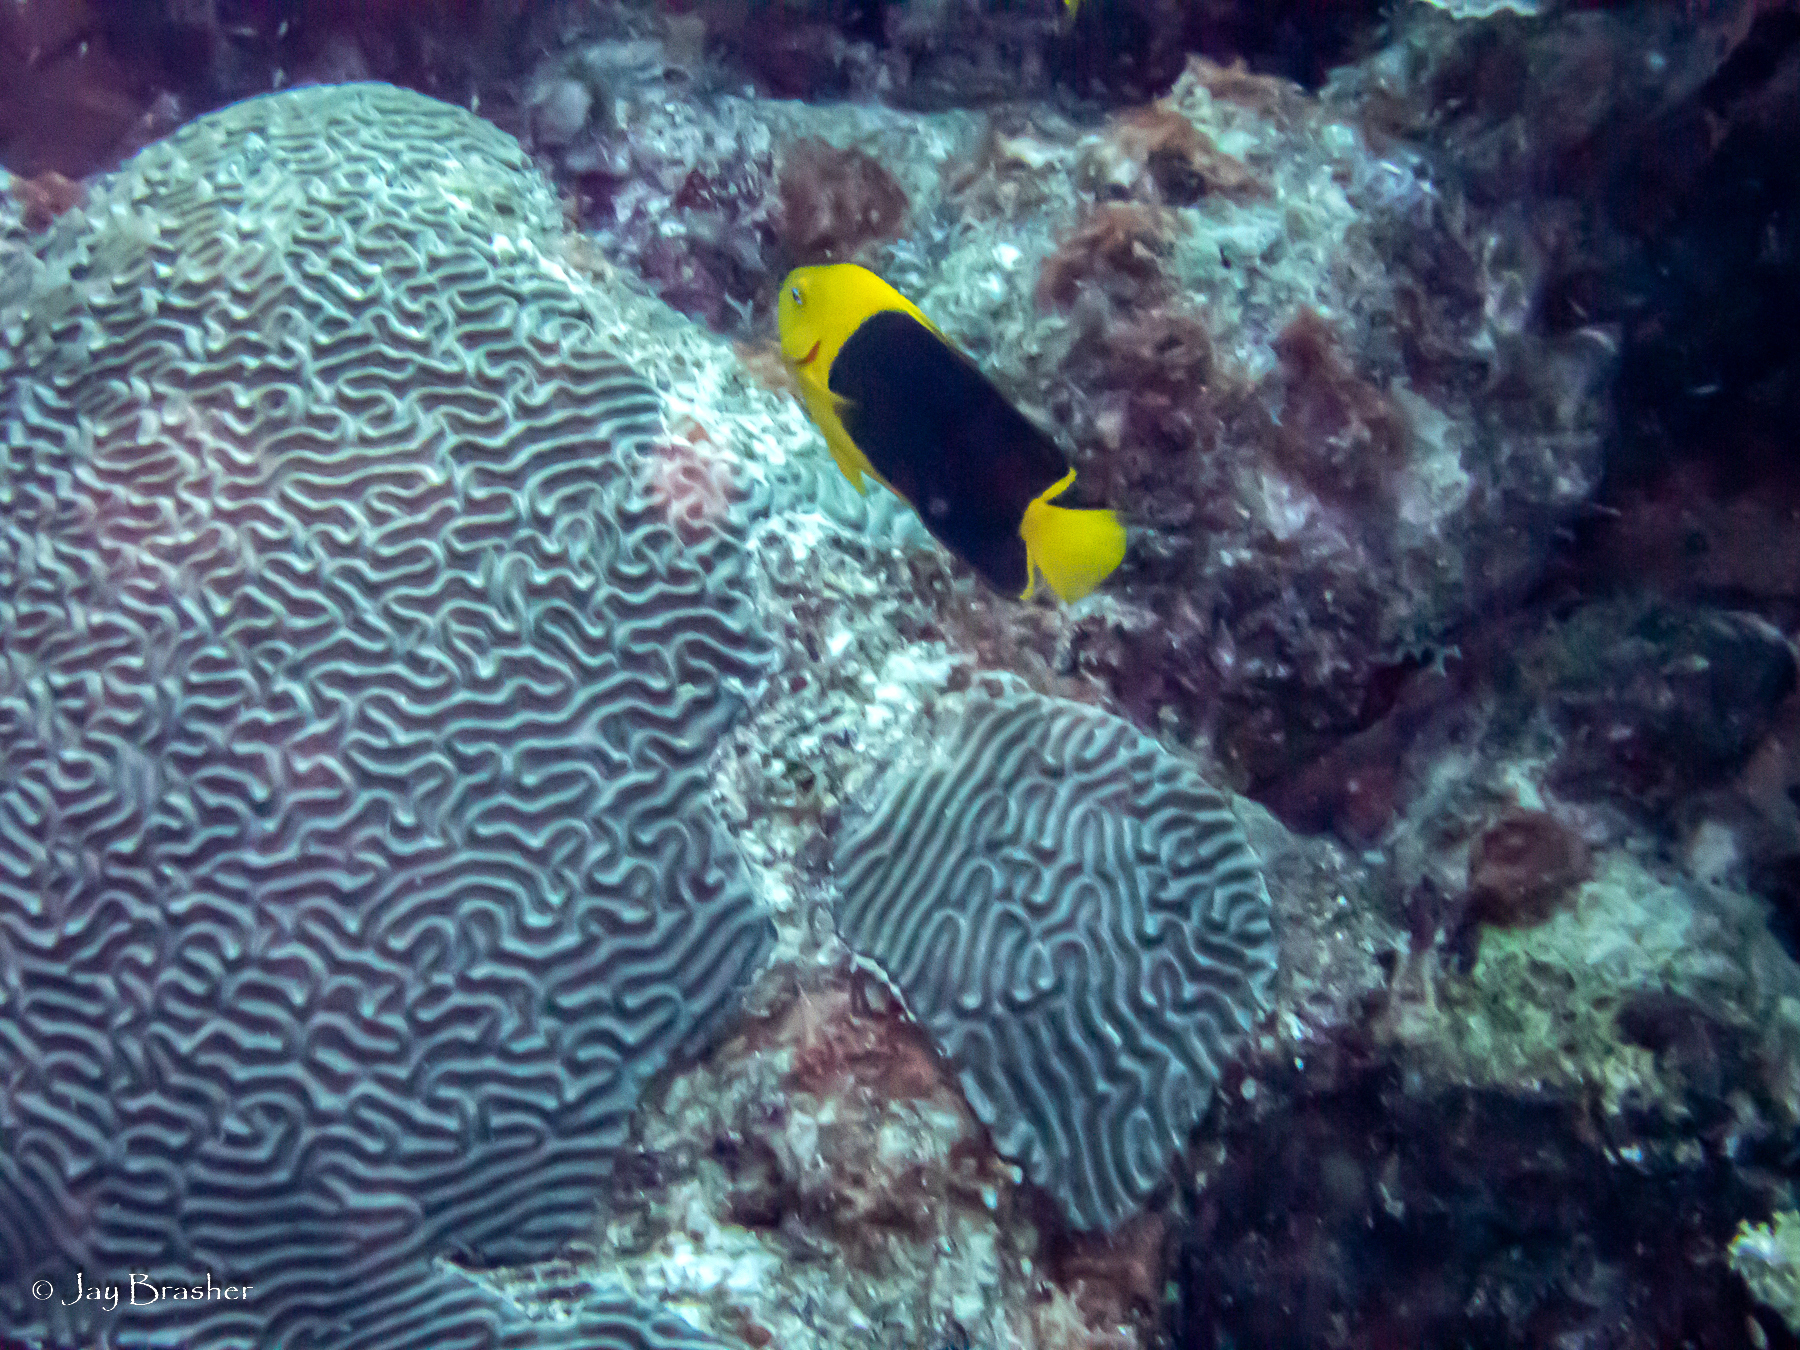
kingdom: Animalia
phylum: Chordata
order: Perciformes
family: Pomacanthidae
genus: Holacanthus
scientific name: Holacanthus tricolor
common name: Rock beauty
